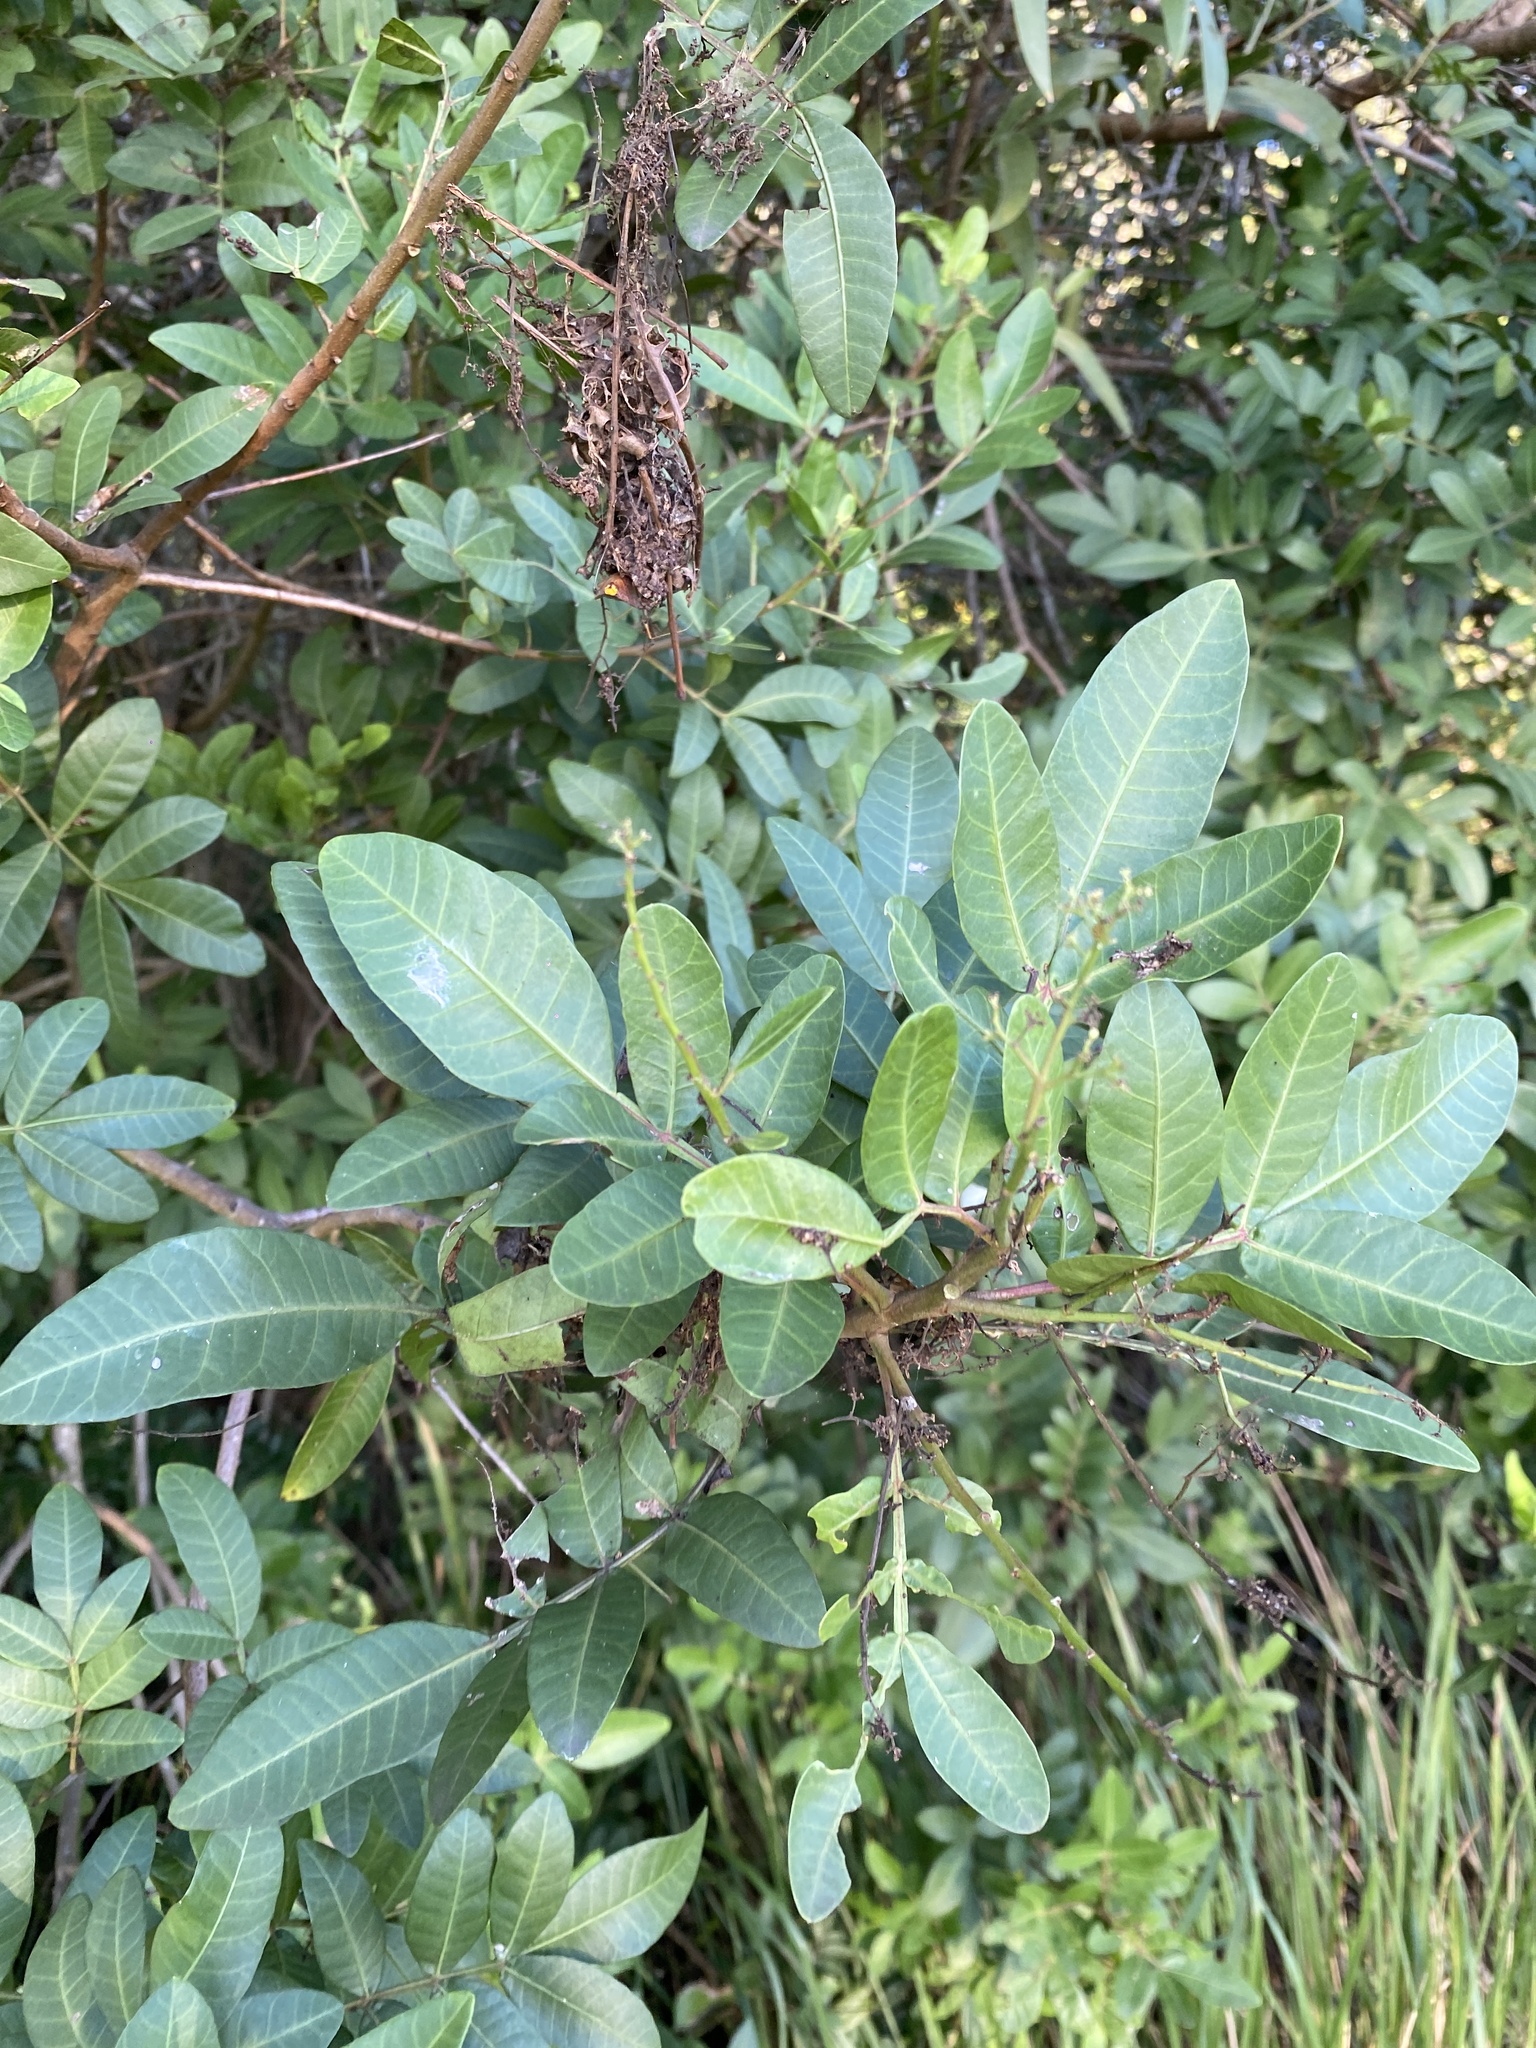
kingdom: Plantae
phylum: Tracheophyta
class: Magnoliopsida
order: Sapindales
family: Anacardiaceae
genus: Schinus
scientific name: Schinus terebinthifolia
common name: Brazilian peppertree
